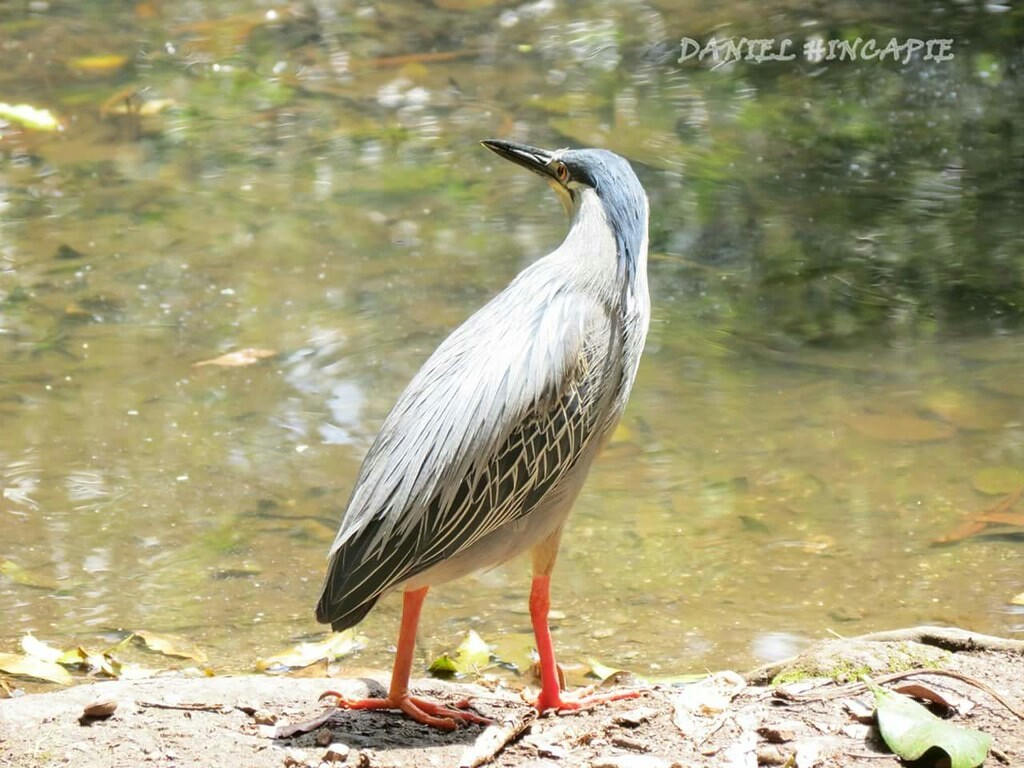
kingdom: Animalia
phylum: Chordata
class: Aves
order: Pelecaniformes
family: Ardeidae
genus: Butorides
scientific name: Butorides striata
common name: Striated heron
